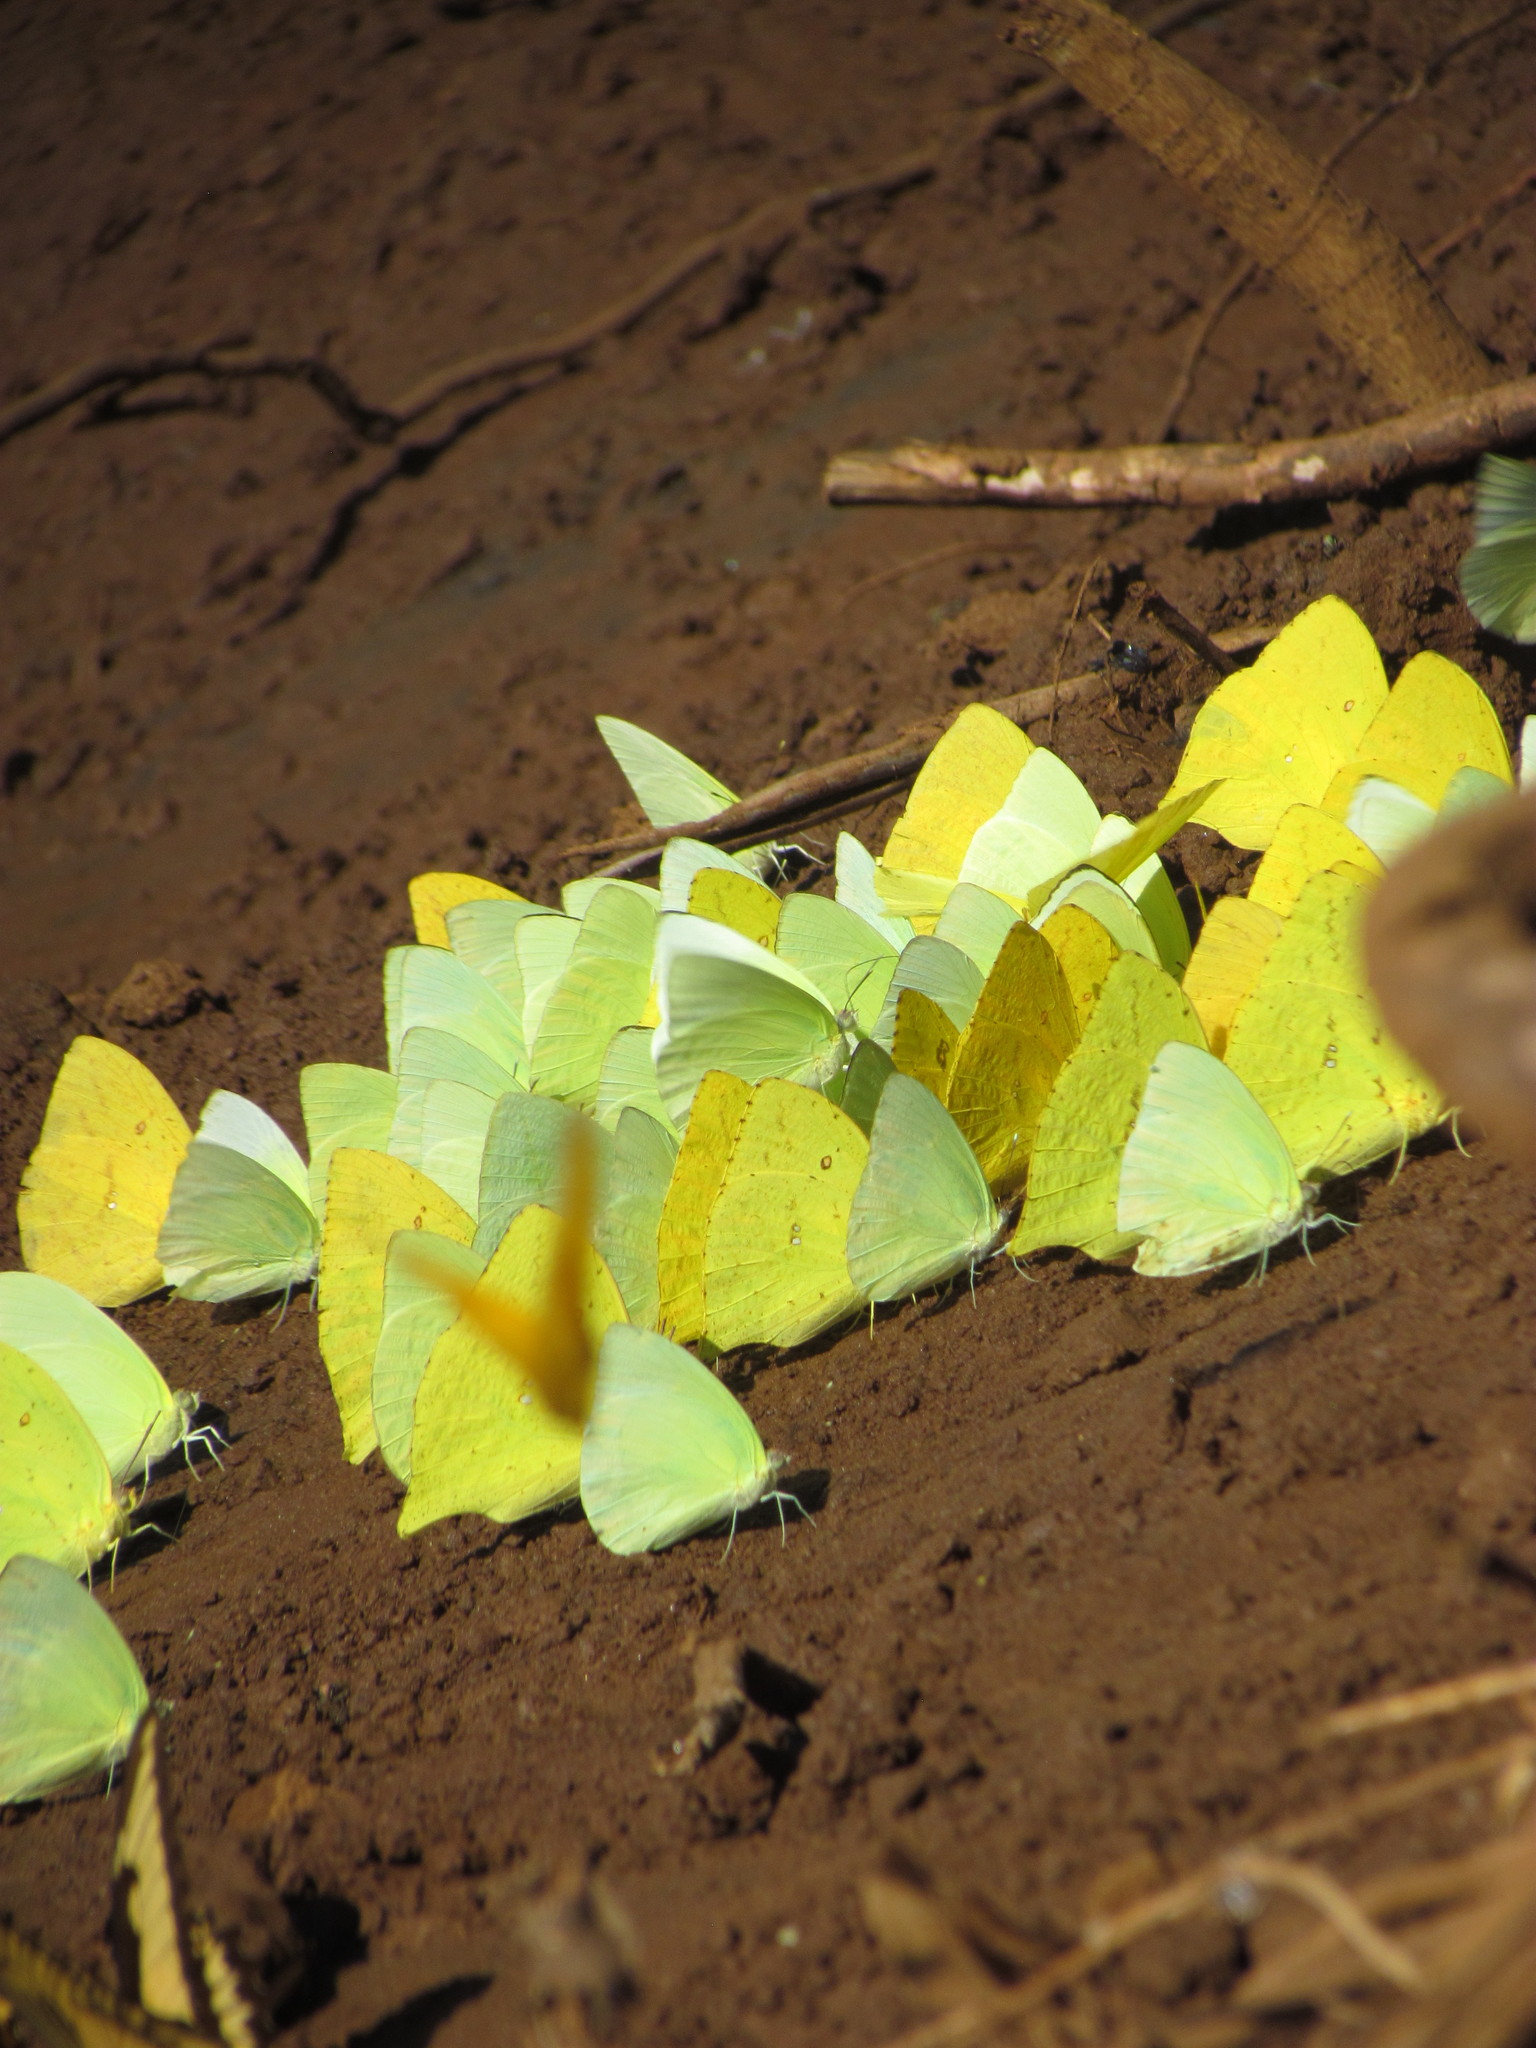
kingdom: Animalia
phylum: Arthropoda
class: Insecta
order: Lepidoptera
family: Pieridae
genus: Aphrissa
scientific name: Aphrissa statira
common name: Statira sulphur
